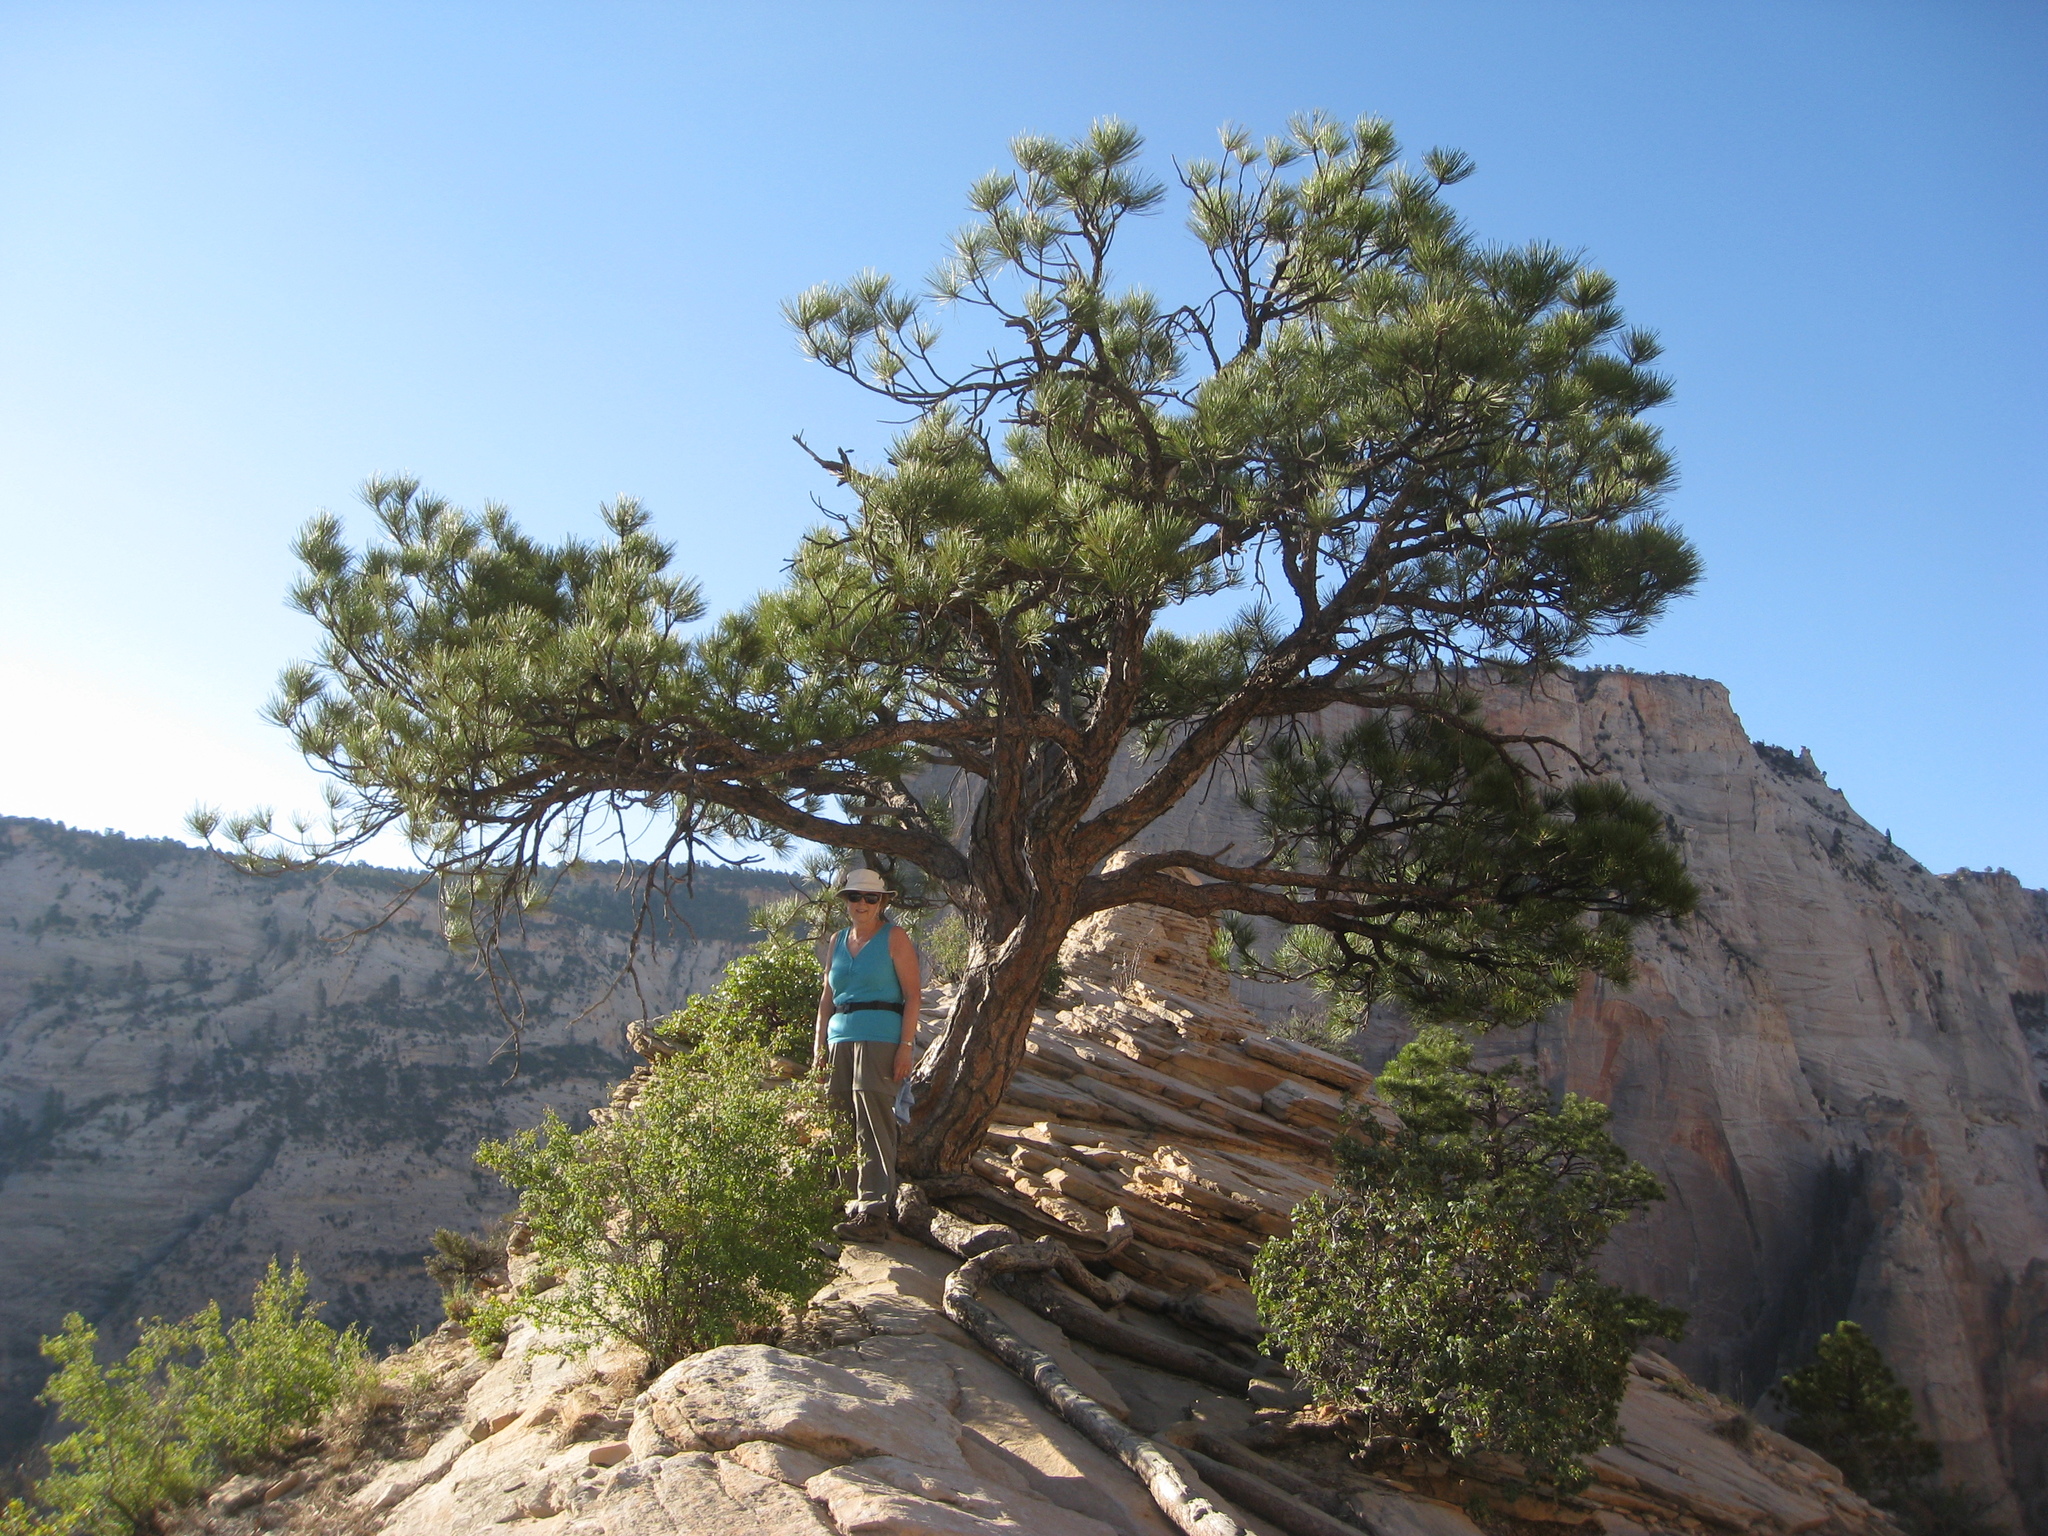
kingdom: Plantae
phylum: Tracheophyta
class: Pinopsida
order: Pinales
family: Pinaceae
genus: Pinus
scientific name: Pinus ponderosa
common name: Western yellow-pine
